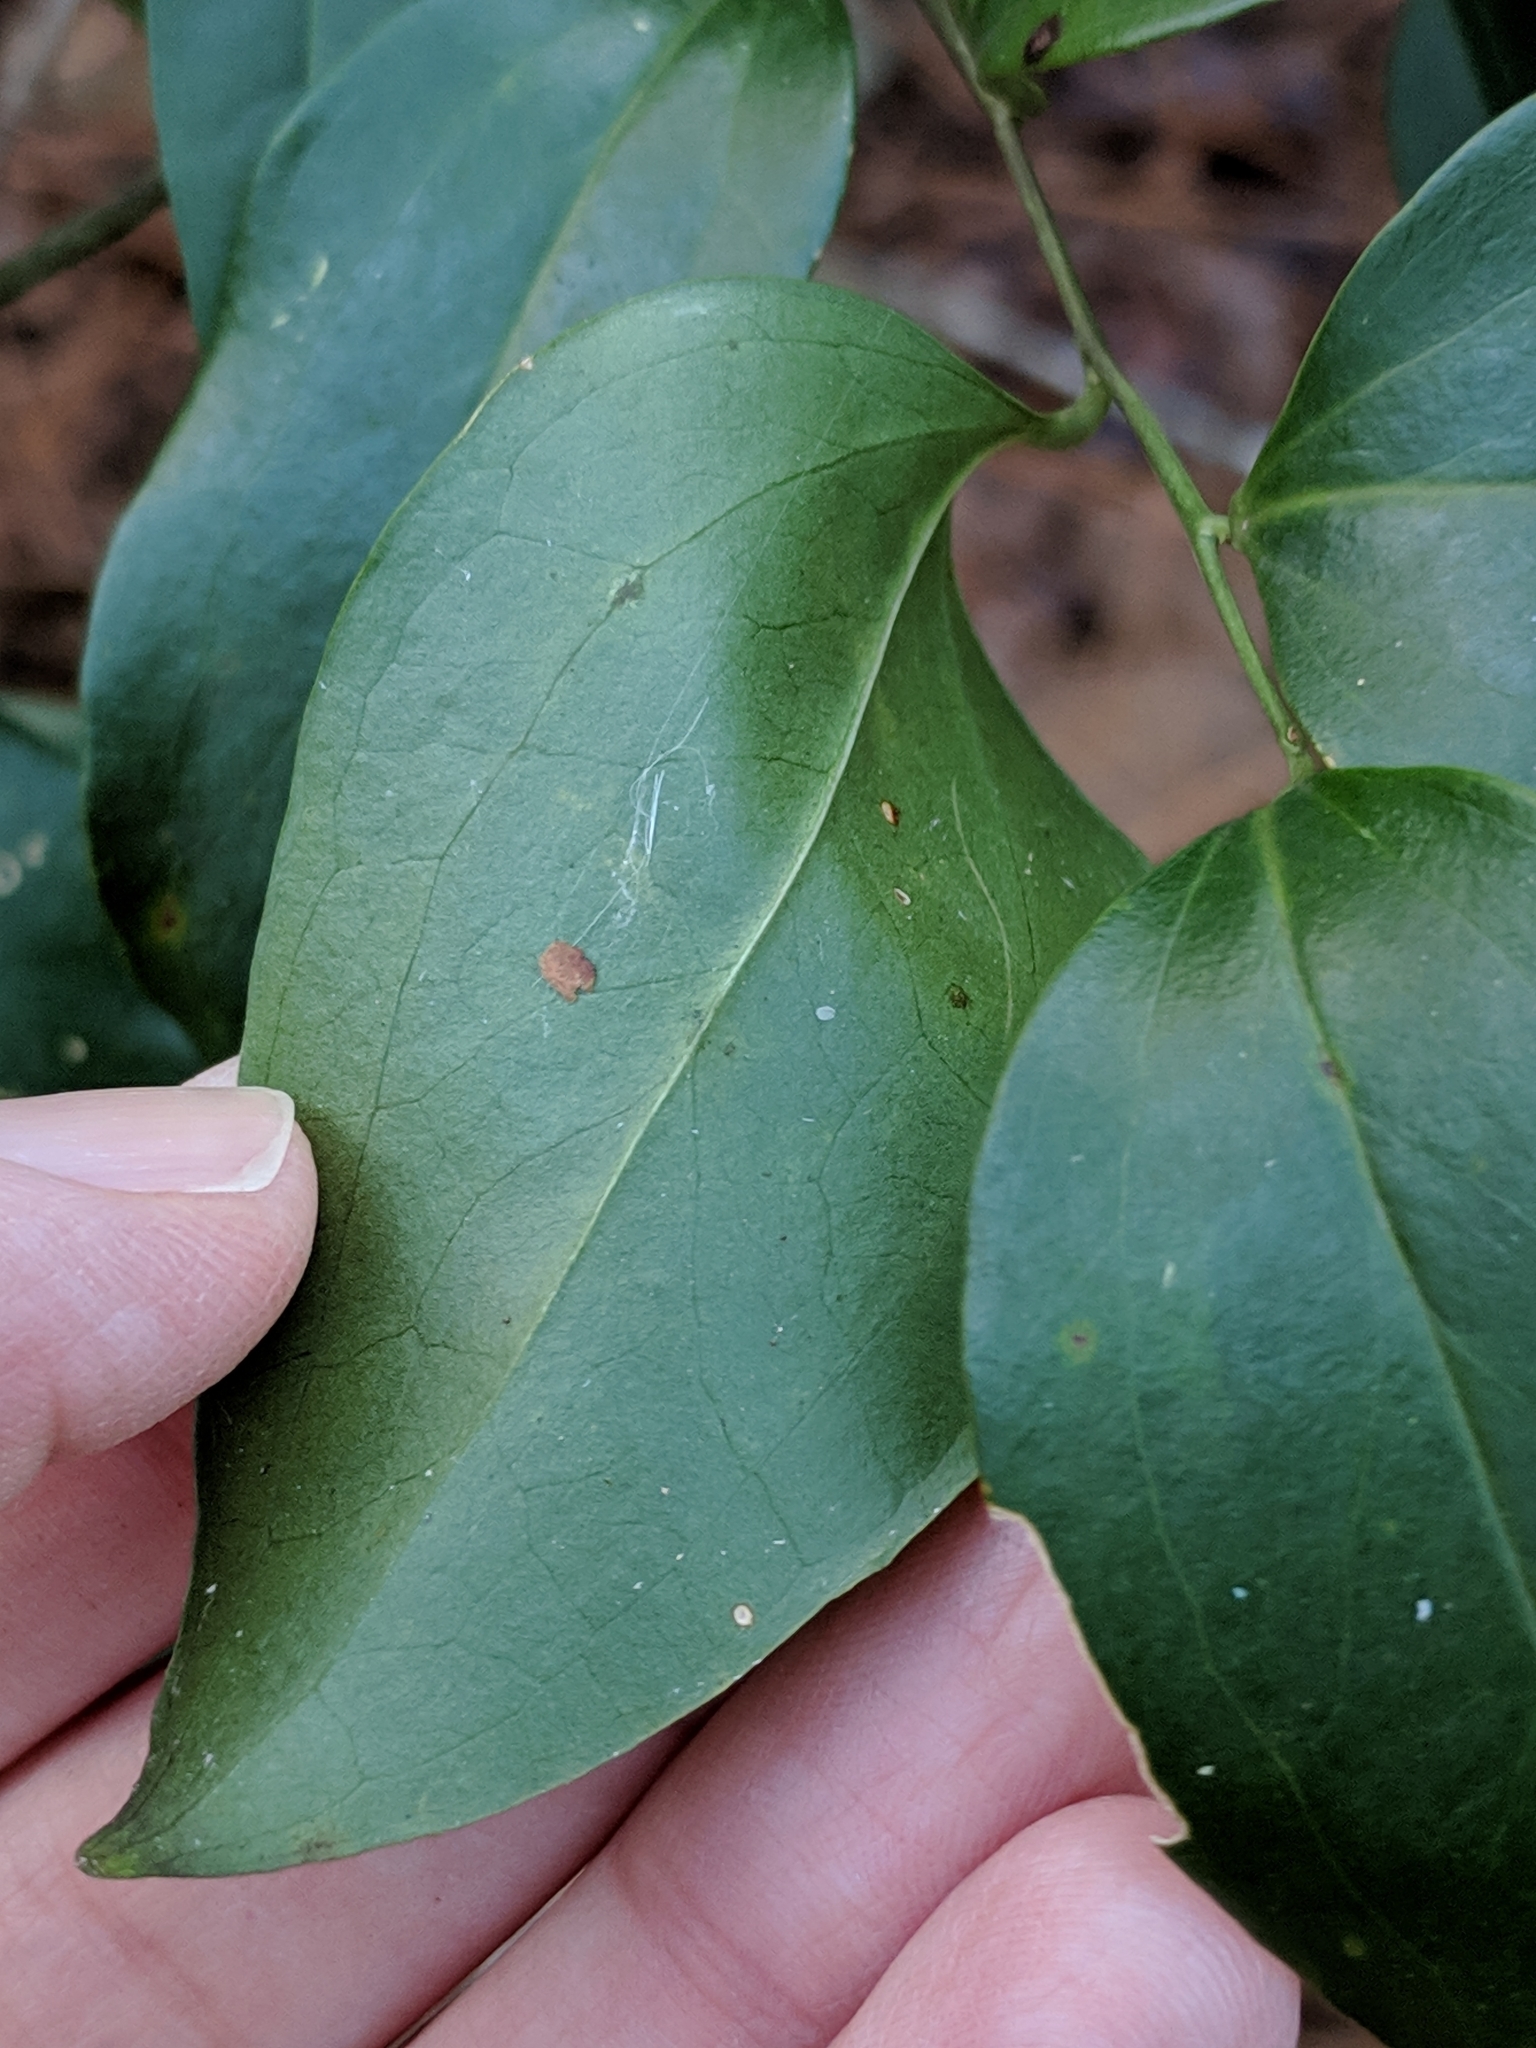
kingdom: Plantae
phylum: Tracheophyta
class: Liliopsida
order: Liliales
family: Smilacaceae
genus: Smilax
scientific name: Smilax maritima
